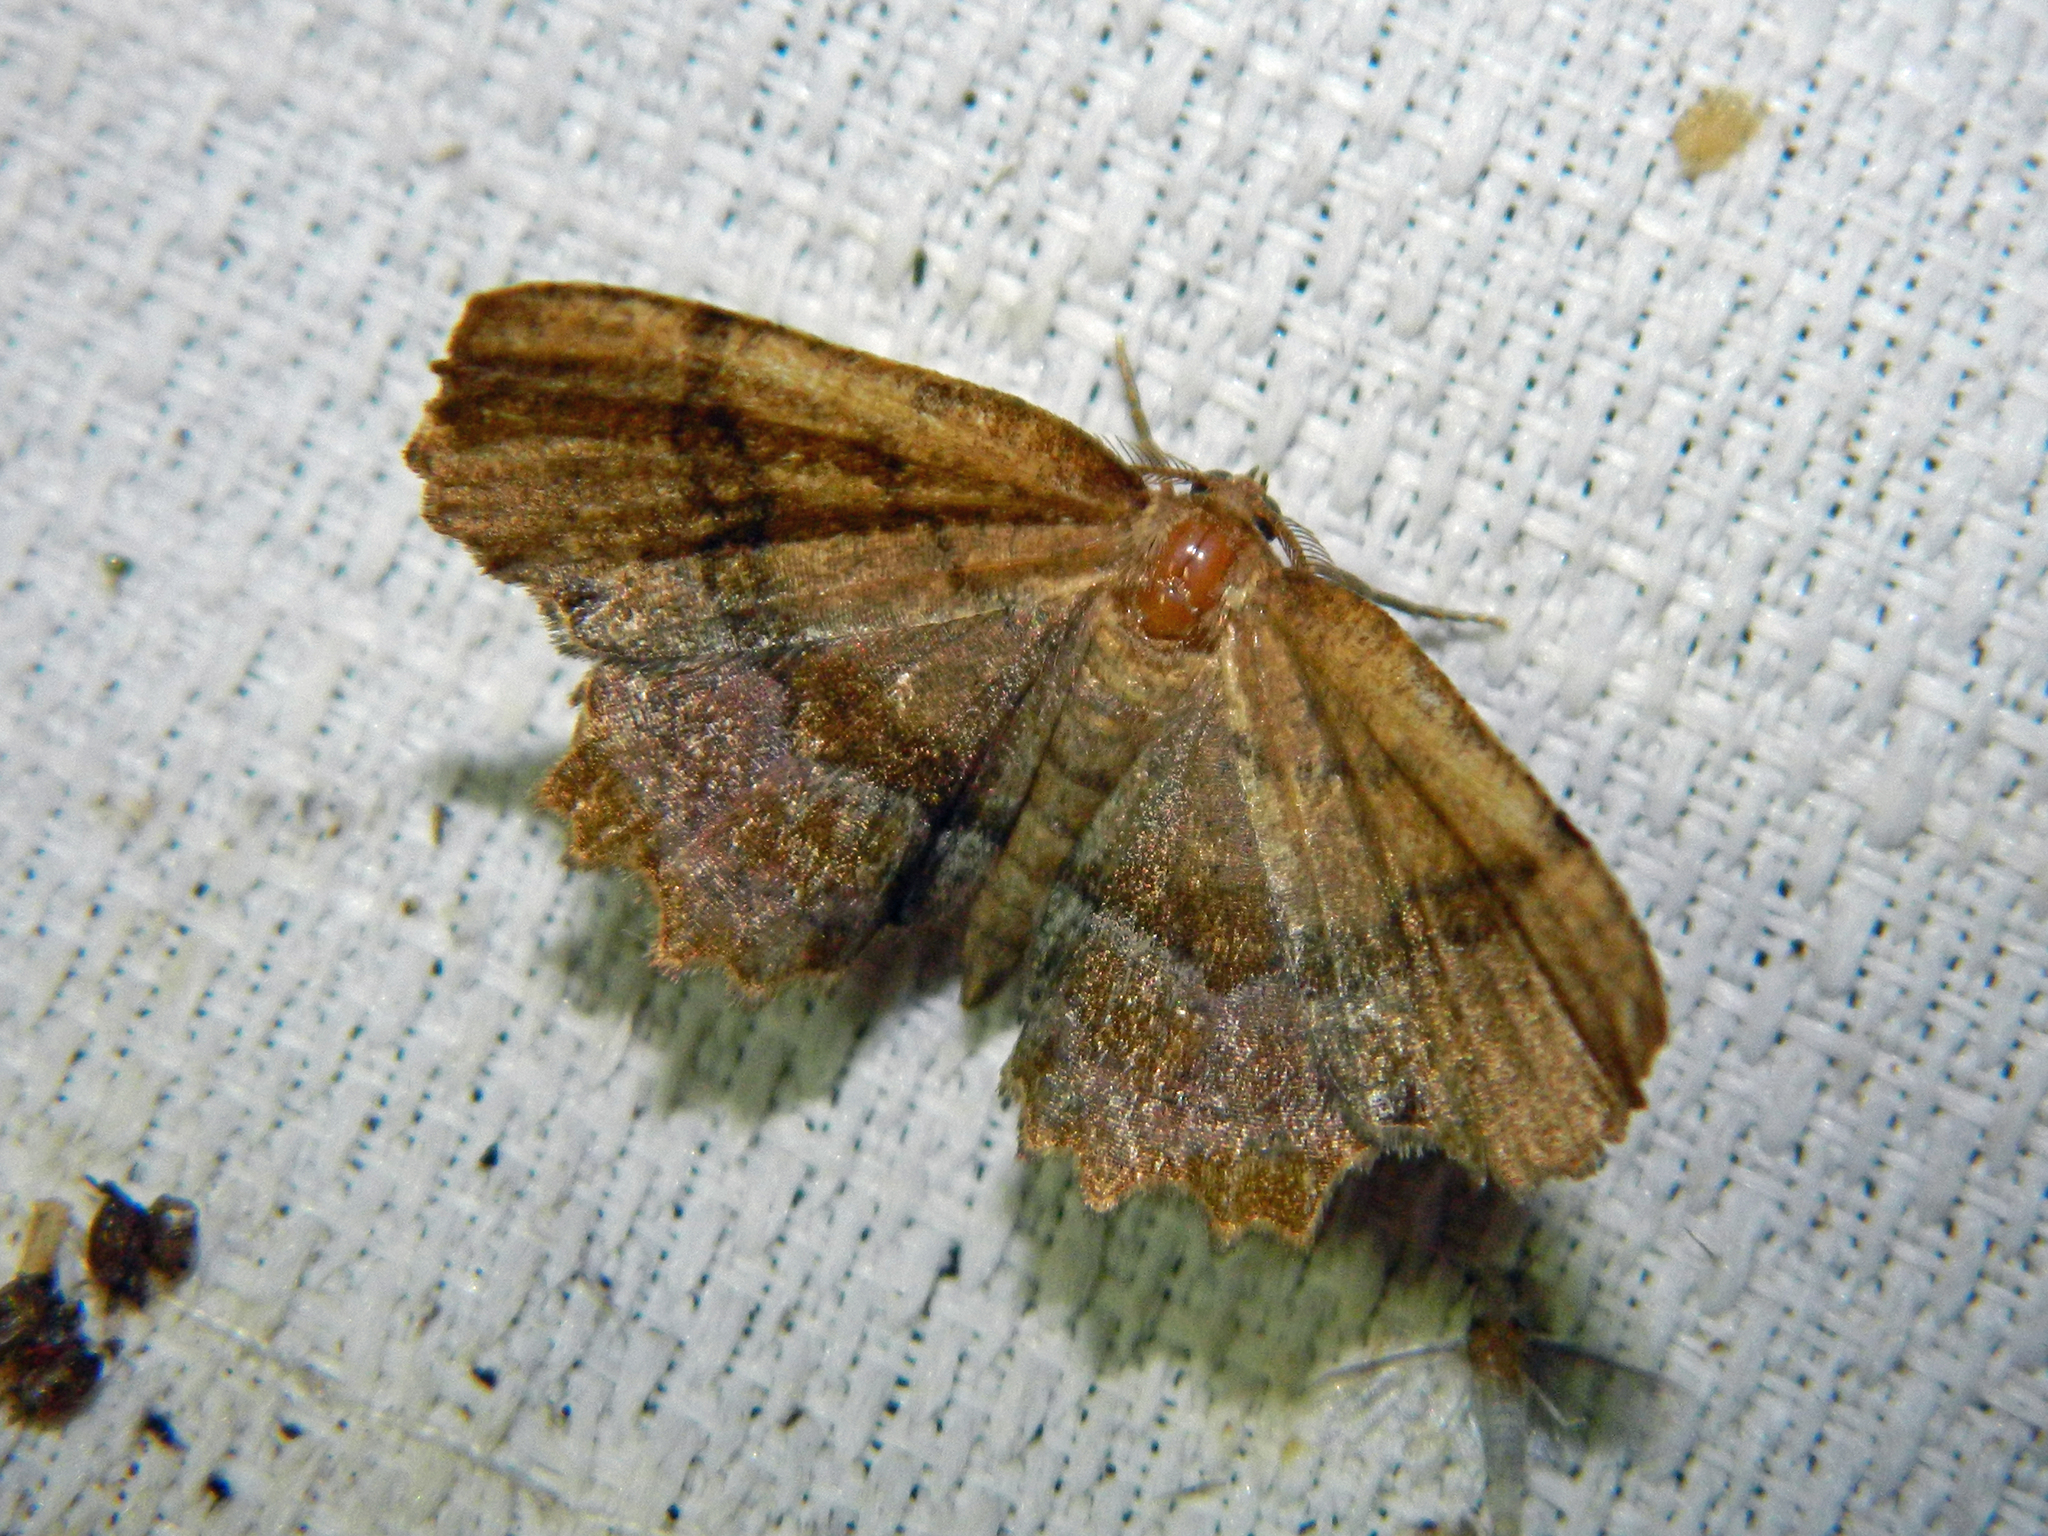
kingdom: Animalia
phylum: Arthropoda
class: Insecta
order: Lepidoptera
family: Geometridae
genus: Cepphis
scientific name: Cepphis armataria
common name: Scallop moth
